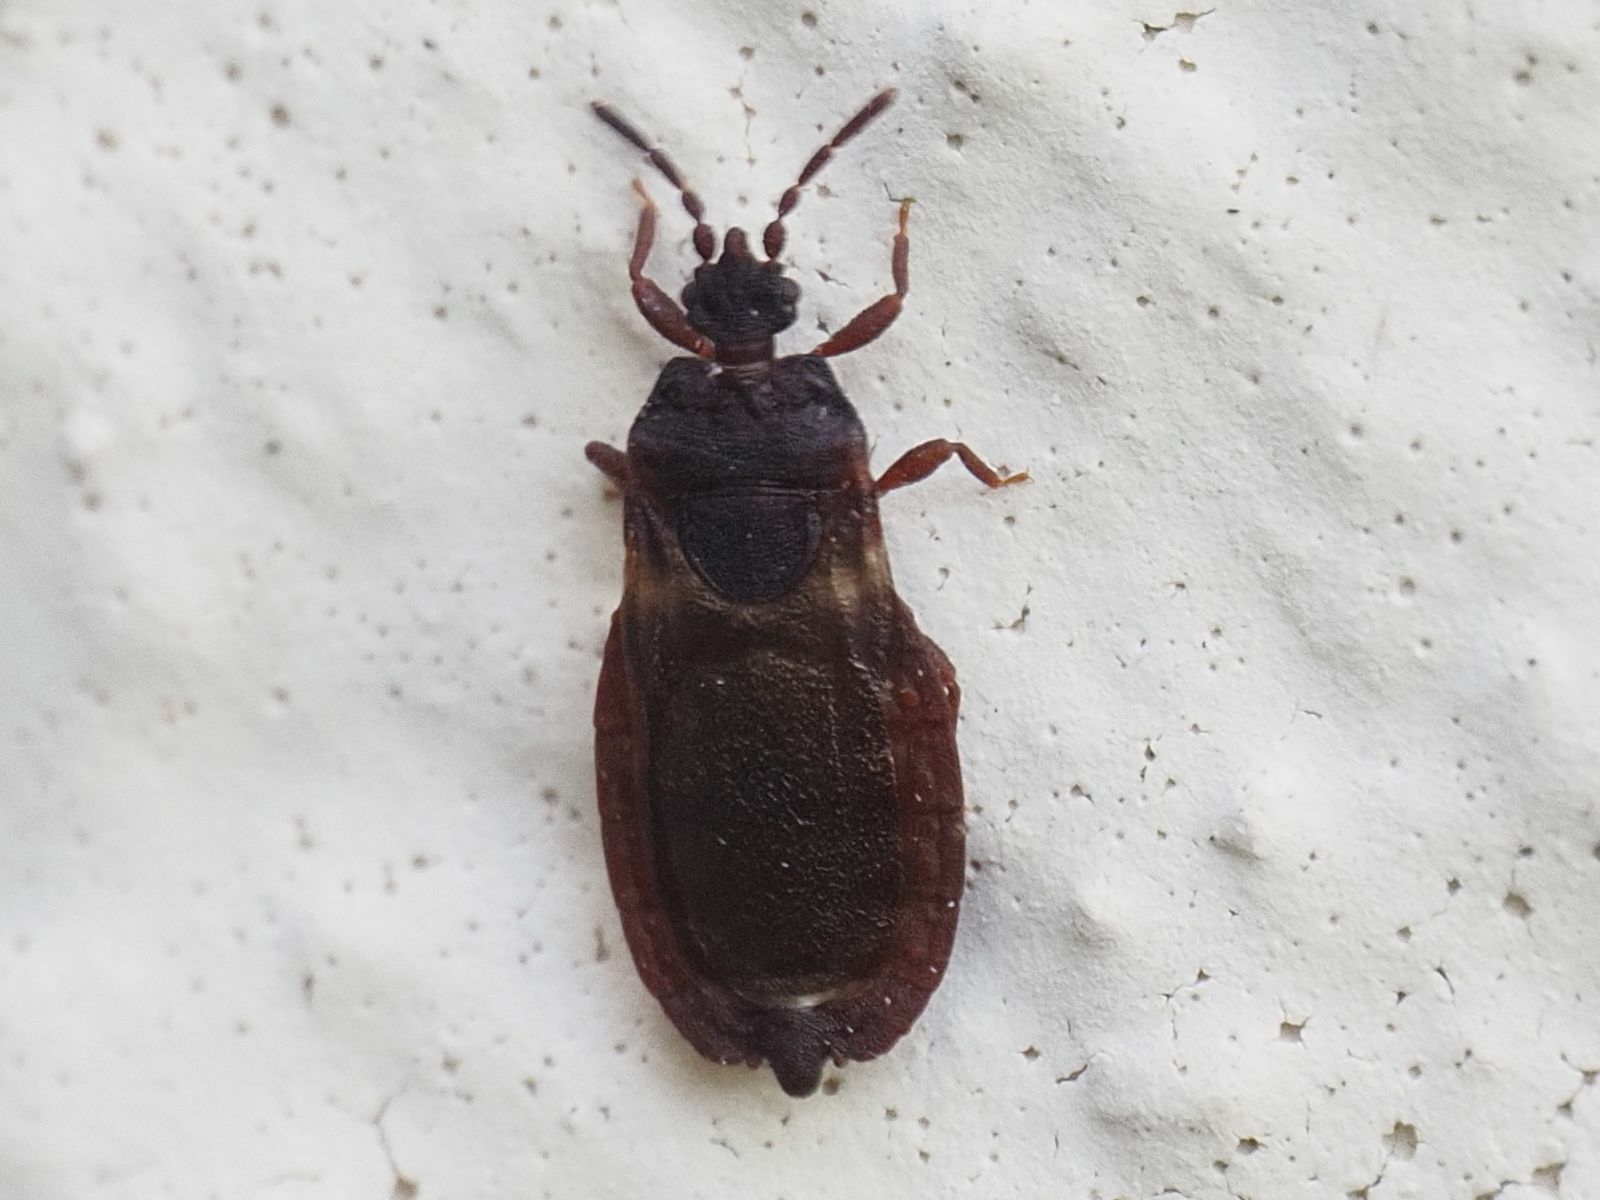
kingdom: Animalia
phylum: Arthropoda
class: Insecta
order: Hemiptera
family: Aradidae
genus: Aneurus
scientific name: Aneurus avenius
